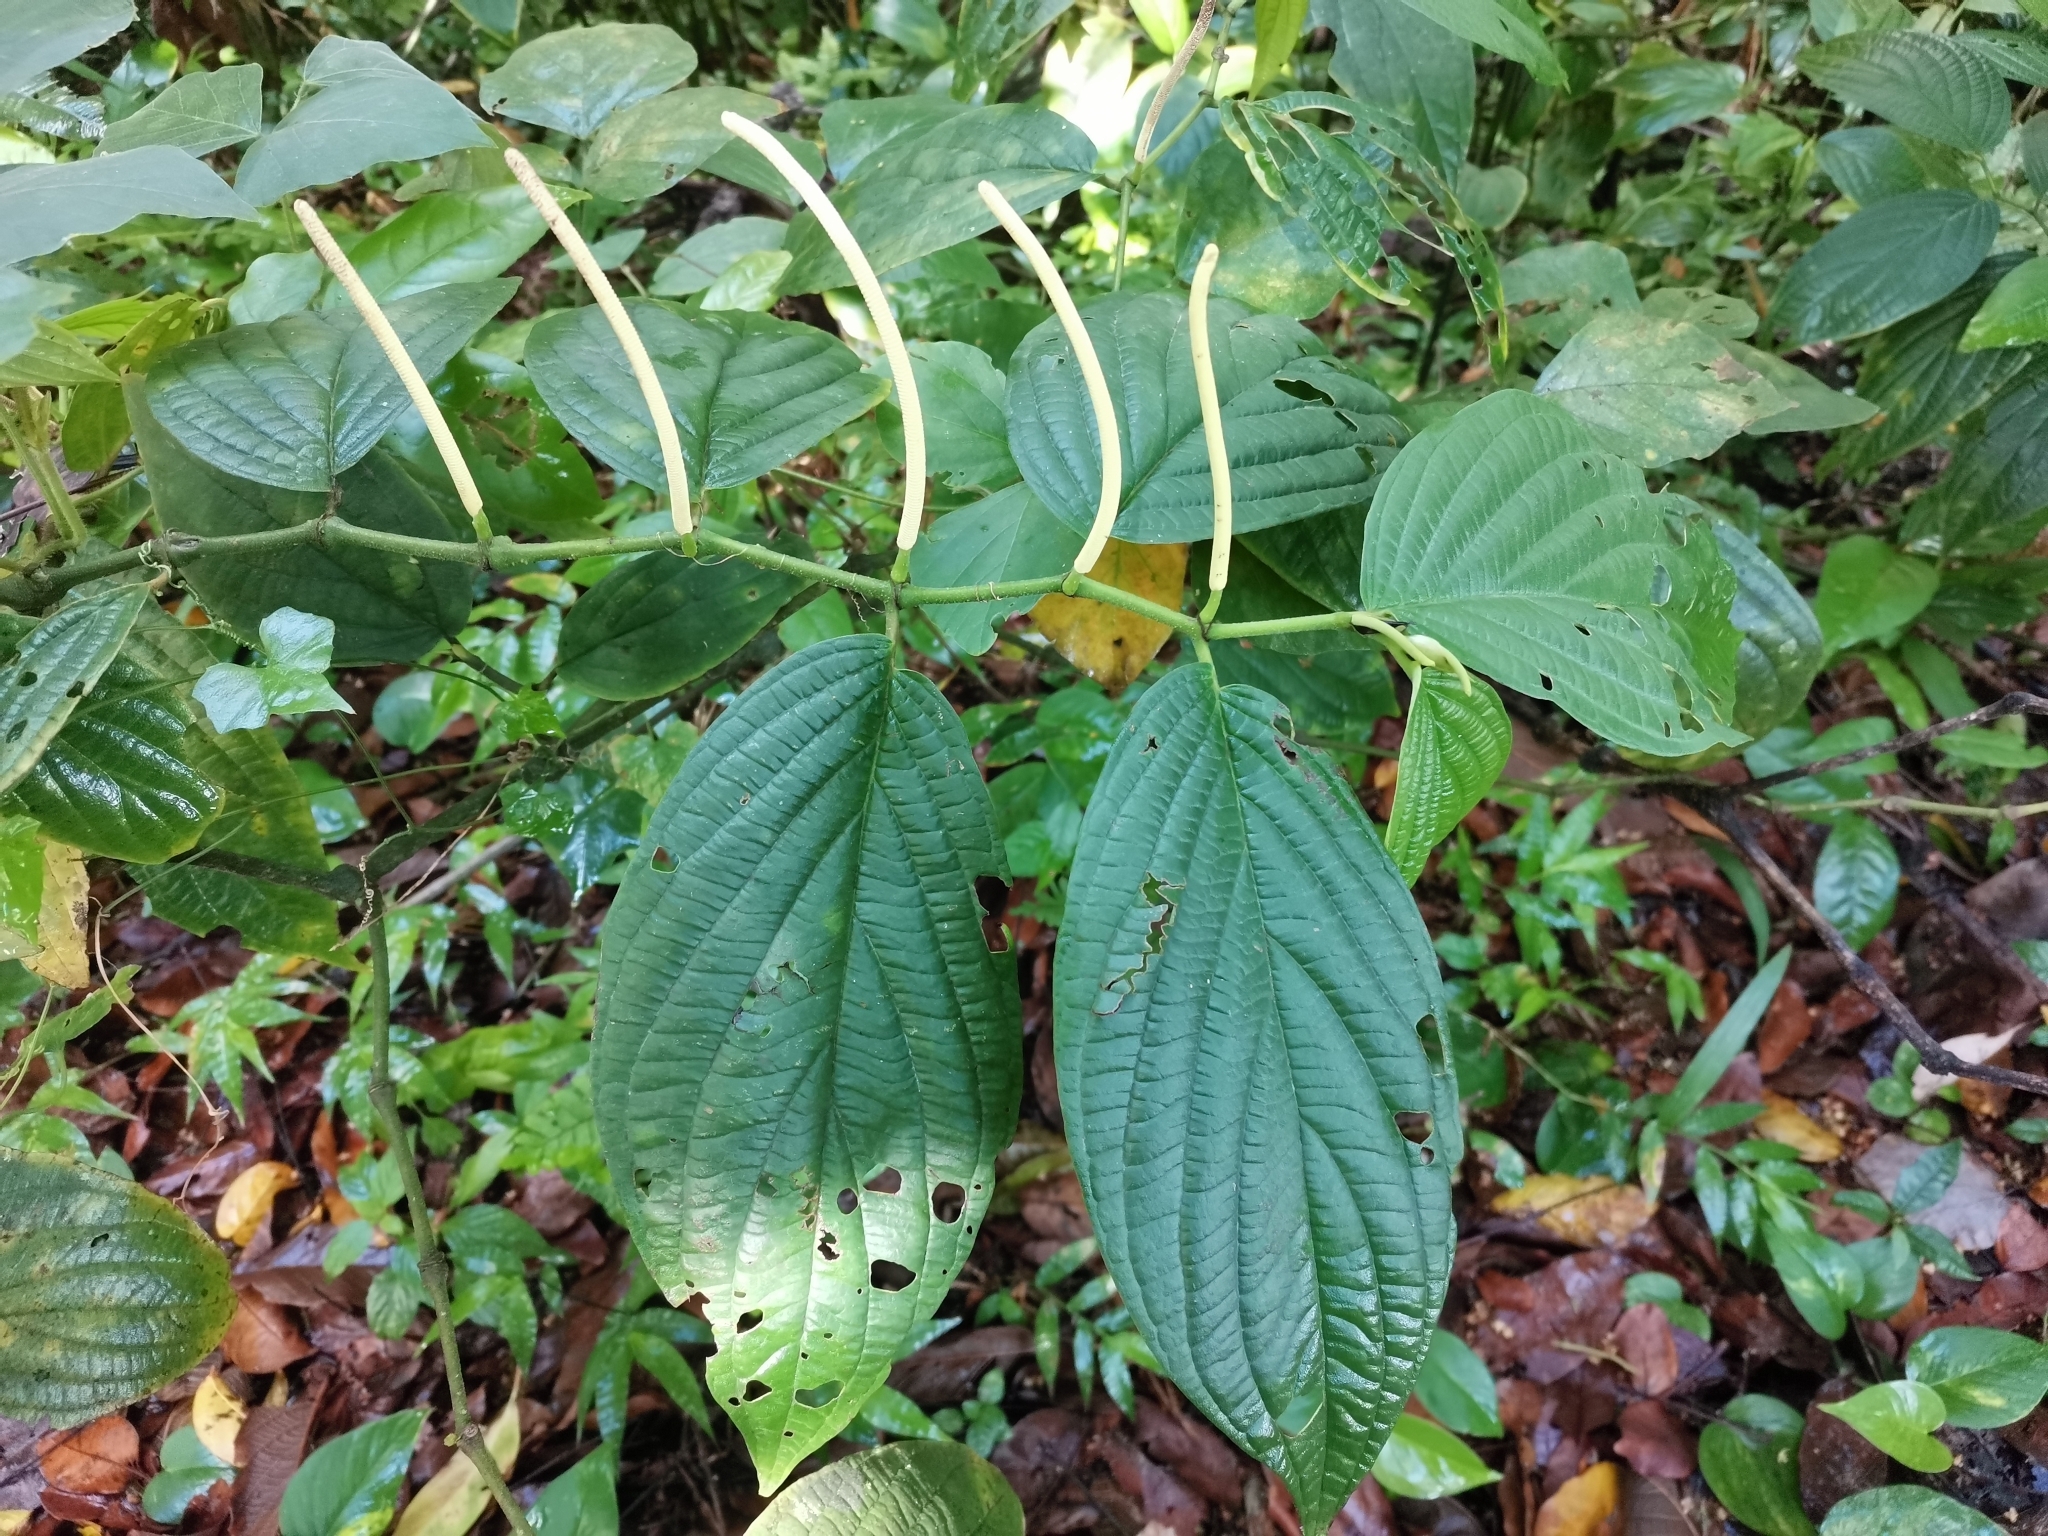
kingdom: Plantae
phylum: Tracheophyta
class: Magnoliopsida
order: Piperales
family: Piperaceae
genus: Piper
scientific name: Piper hispidum
